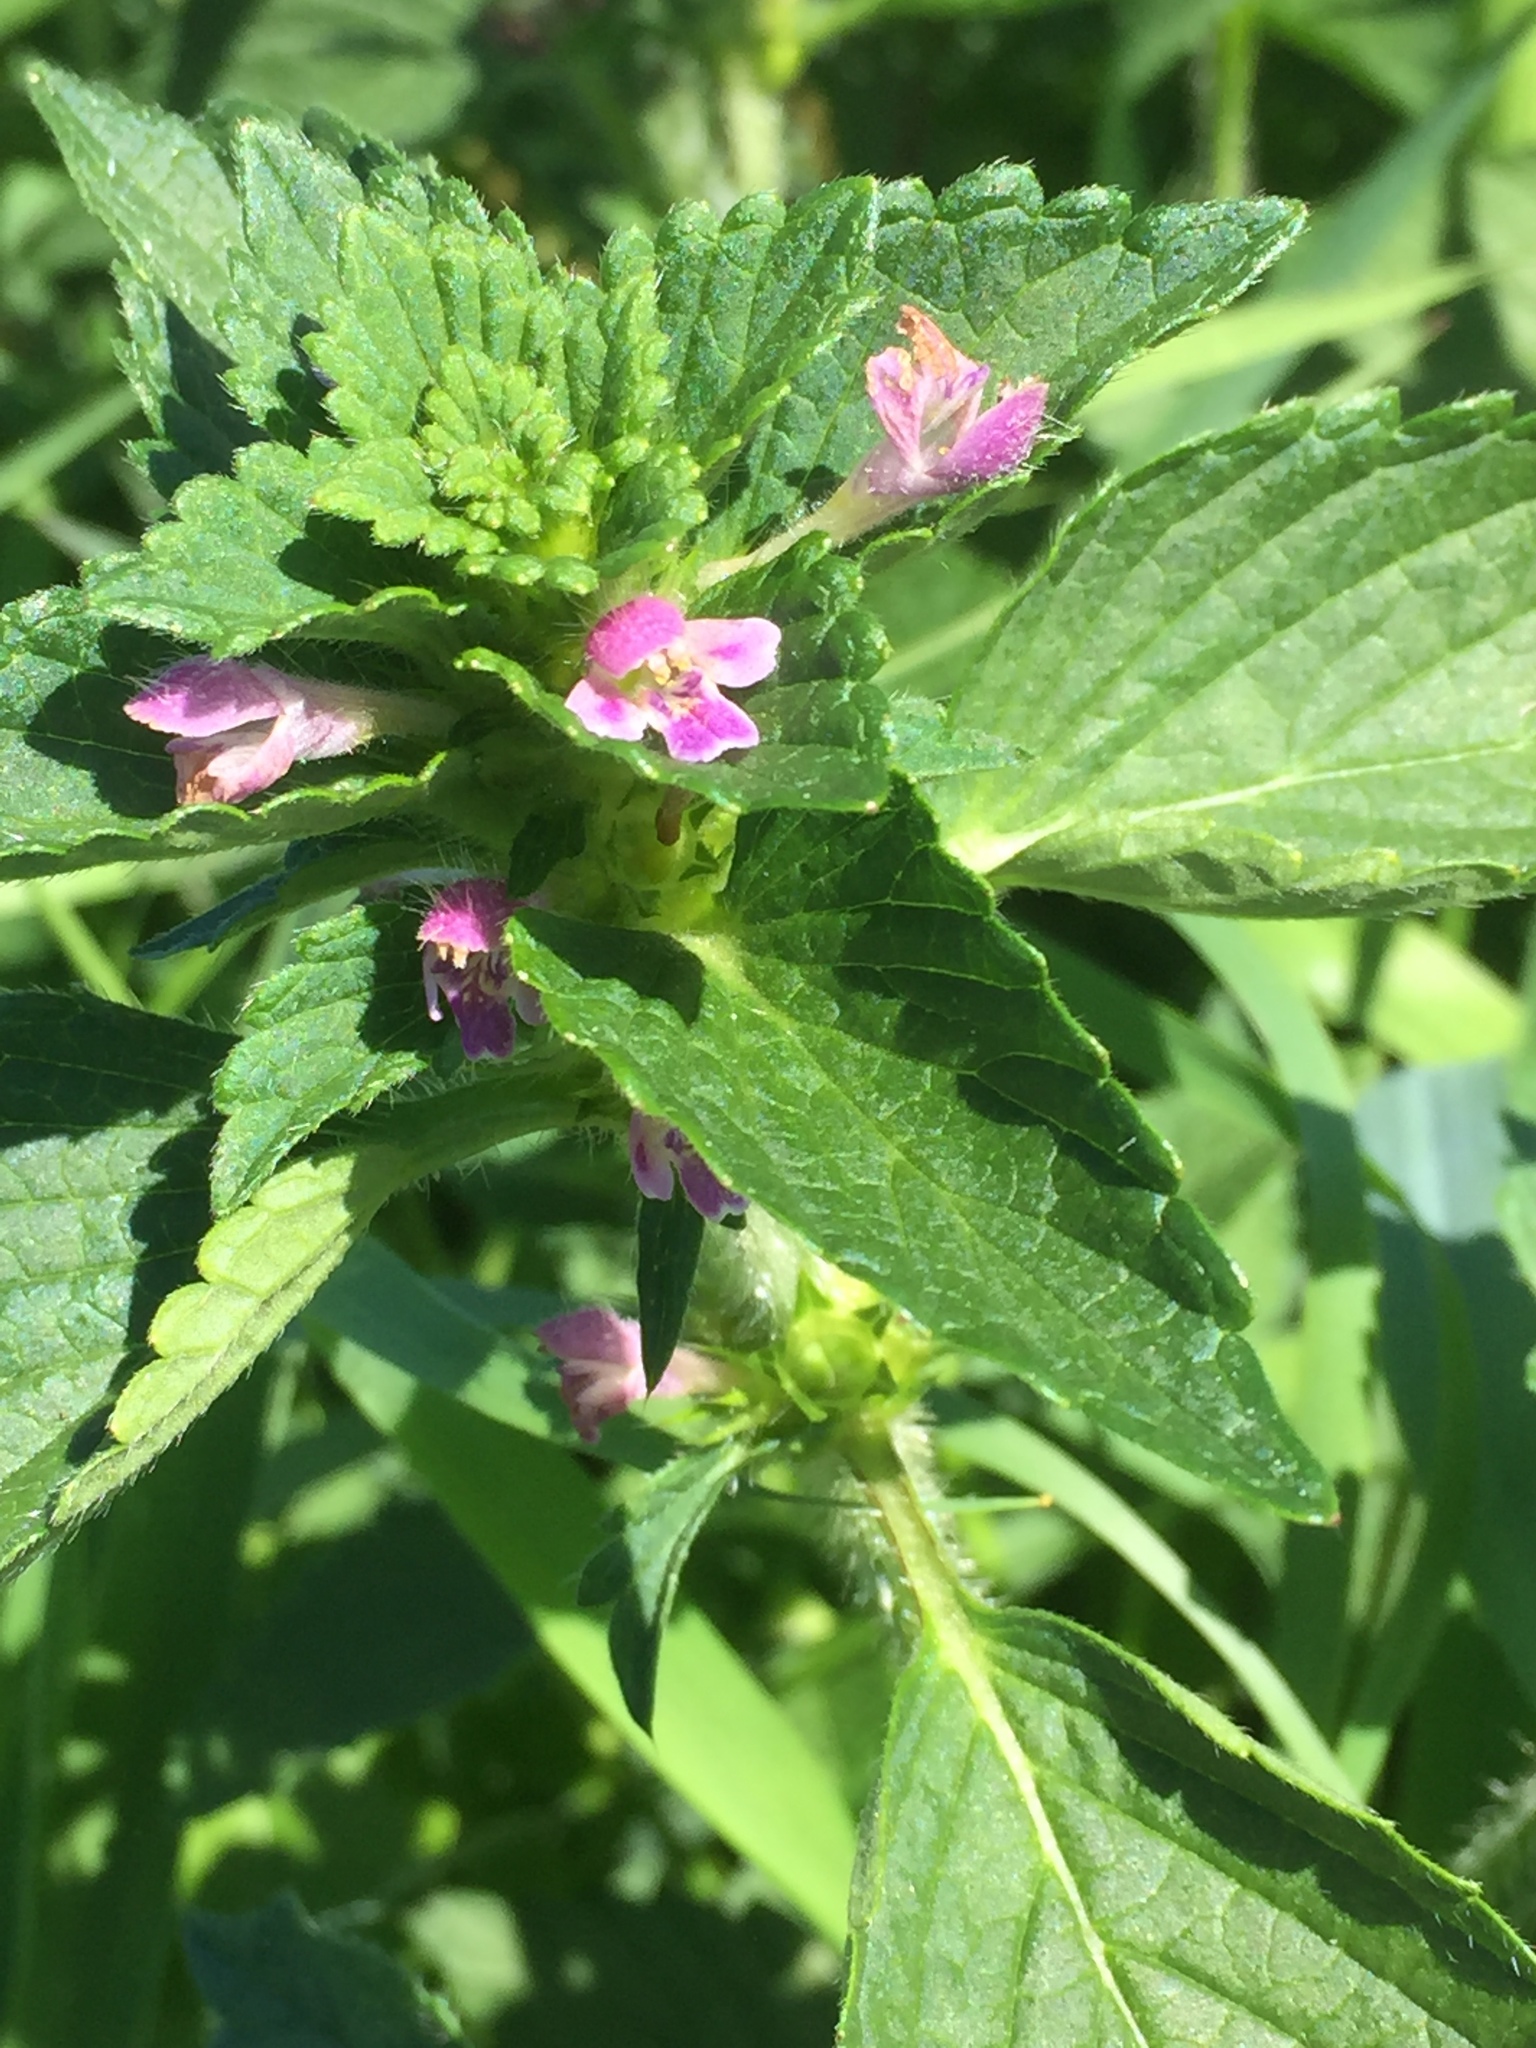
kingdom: Plantae
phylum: Tracheophyta
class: Magnoliopsida
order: Lamiales
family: Lamiaceae
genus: Galeopsis
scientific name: Galeopsis bifida
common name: Bifid hemp-nettle
